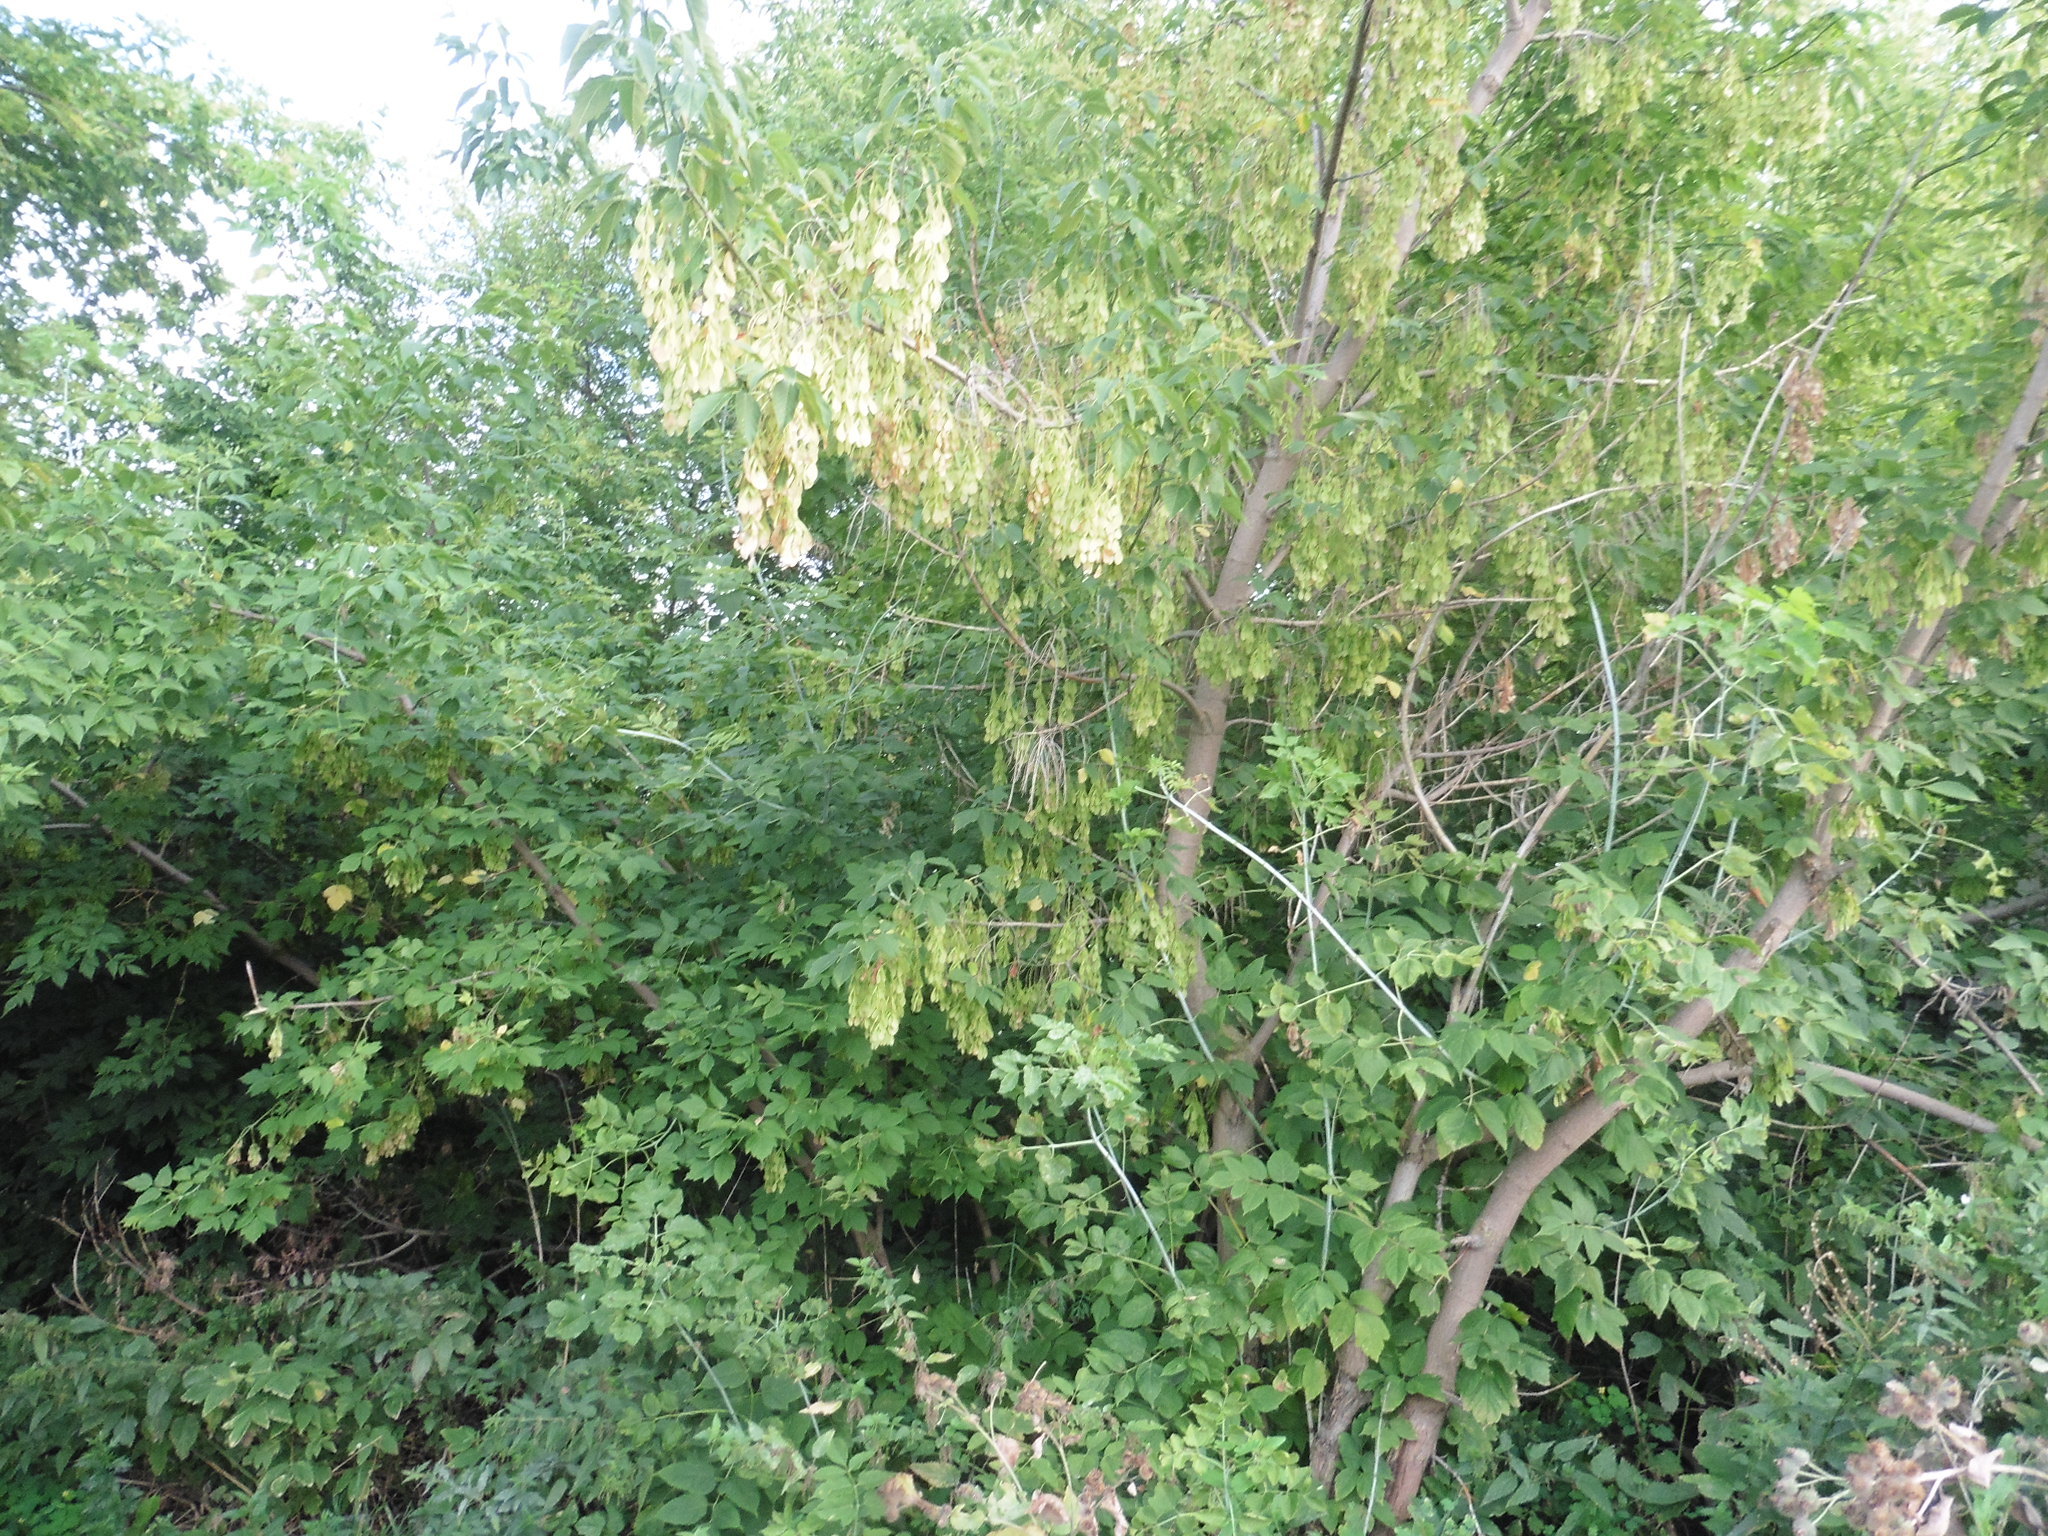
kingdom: Plantae
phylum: Tracheophyta
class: Magnoliopsida
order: Sapindales
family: Sapindaceae
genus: Acer
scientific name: Acer negundo
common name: Ashleaf maple
